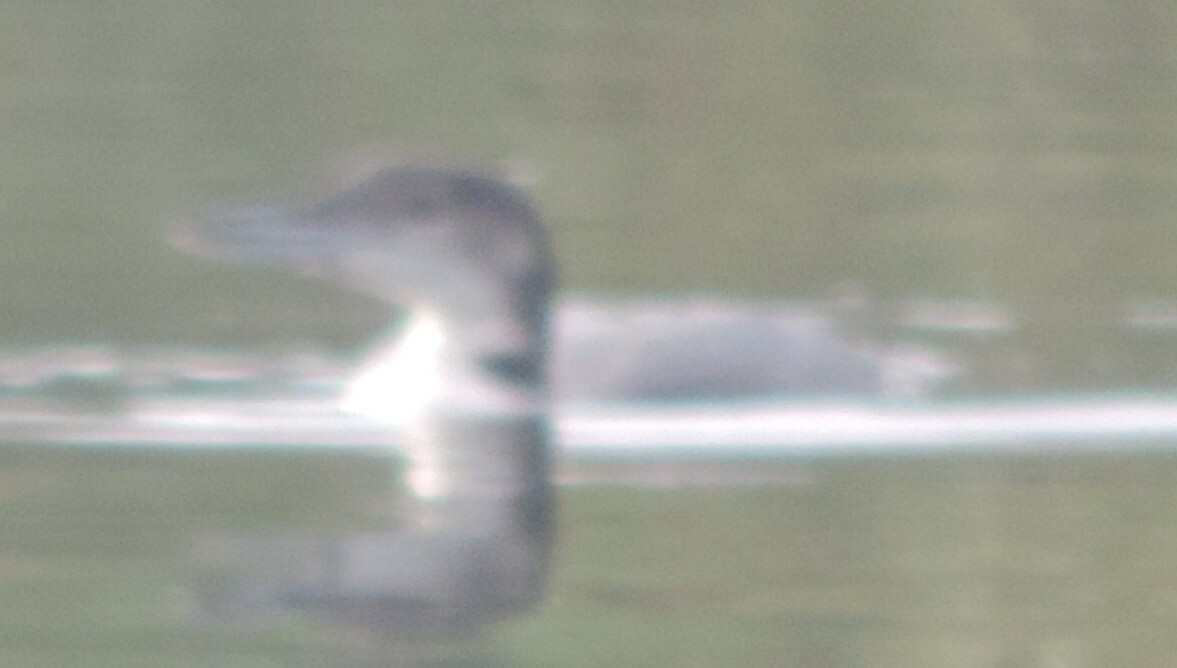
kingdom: Animalia
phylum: Chordata
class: Aves
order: Gaviiformes
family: Gaviidae
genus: Gavia
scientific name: Gavia immer
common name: Common loon
